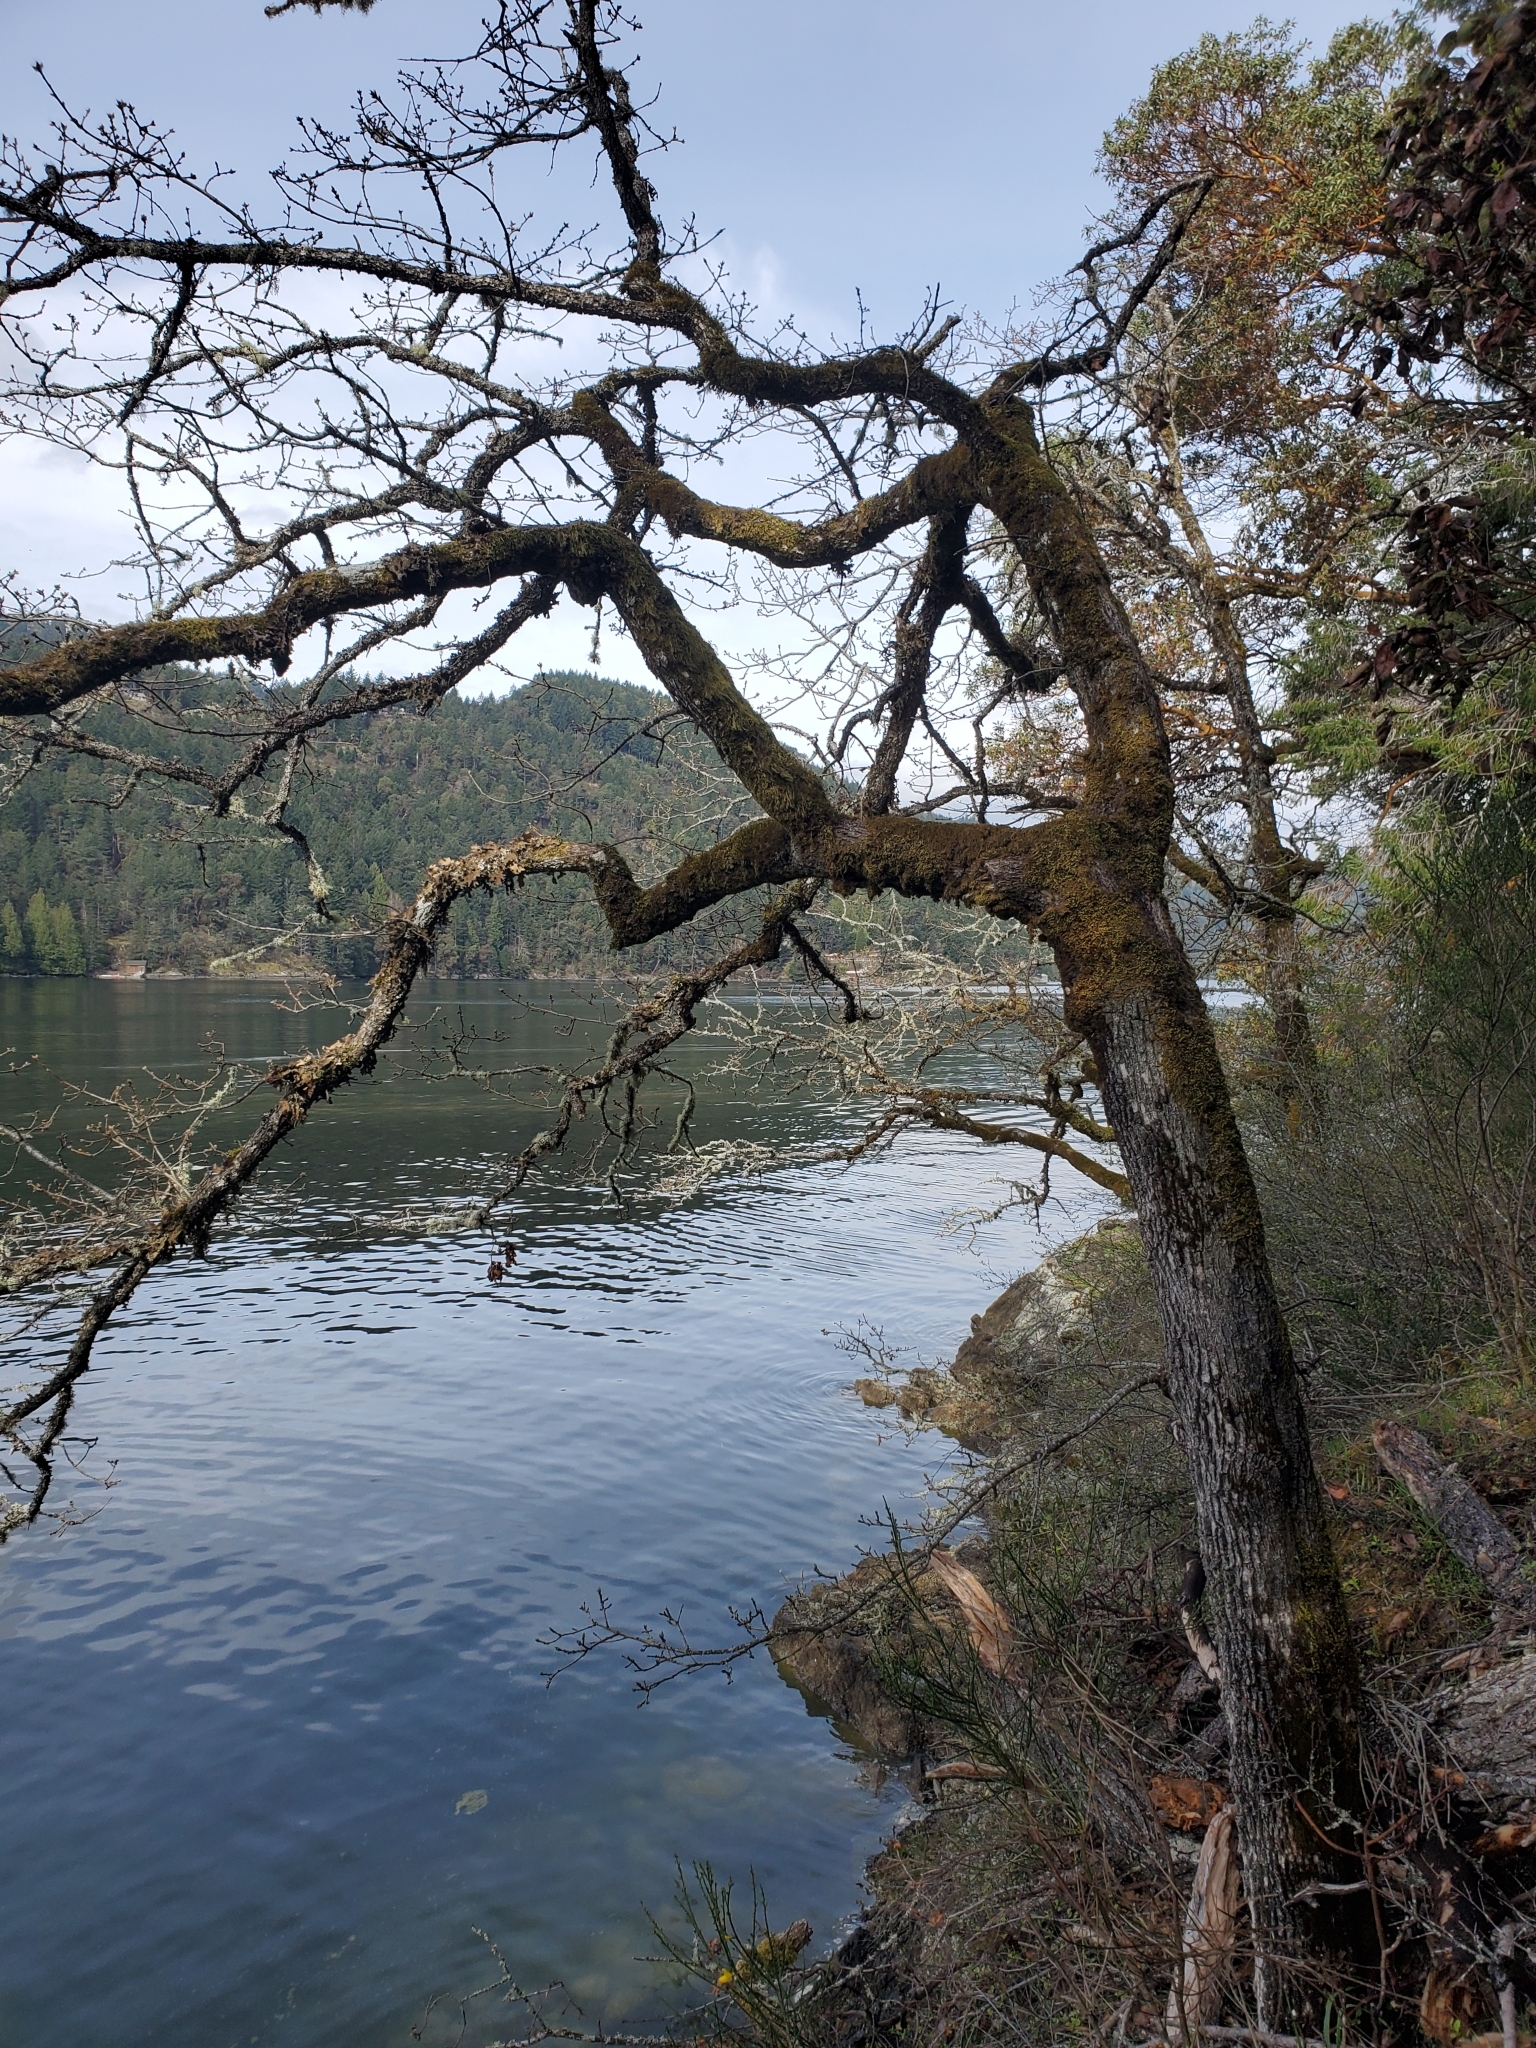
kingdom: Plantae
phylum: Tracheophyta
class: Magnoliopsida
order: Fagales
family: Fagaceae
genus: Quercus
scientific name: Quercus garryana
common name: Garry oak
